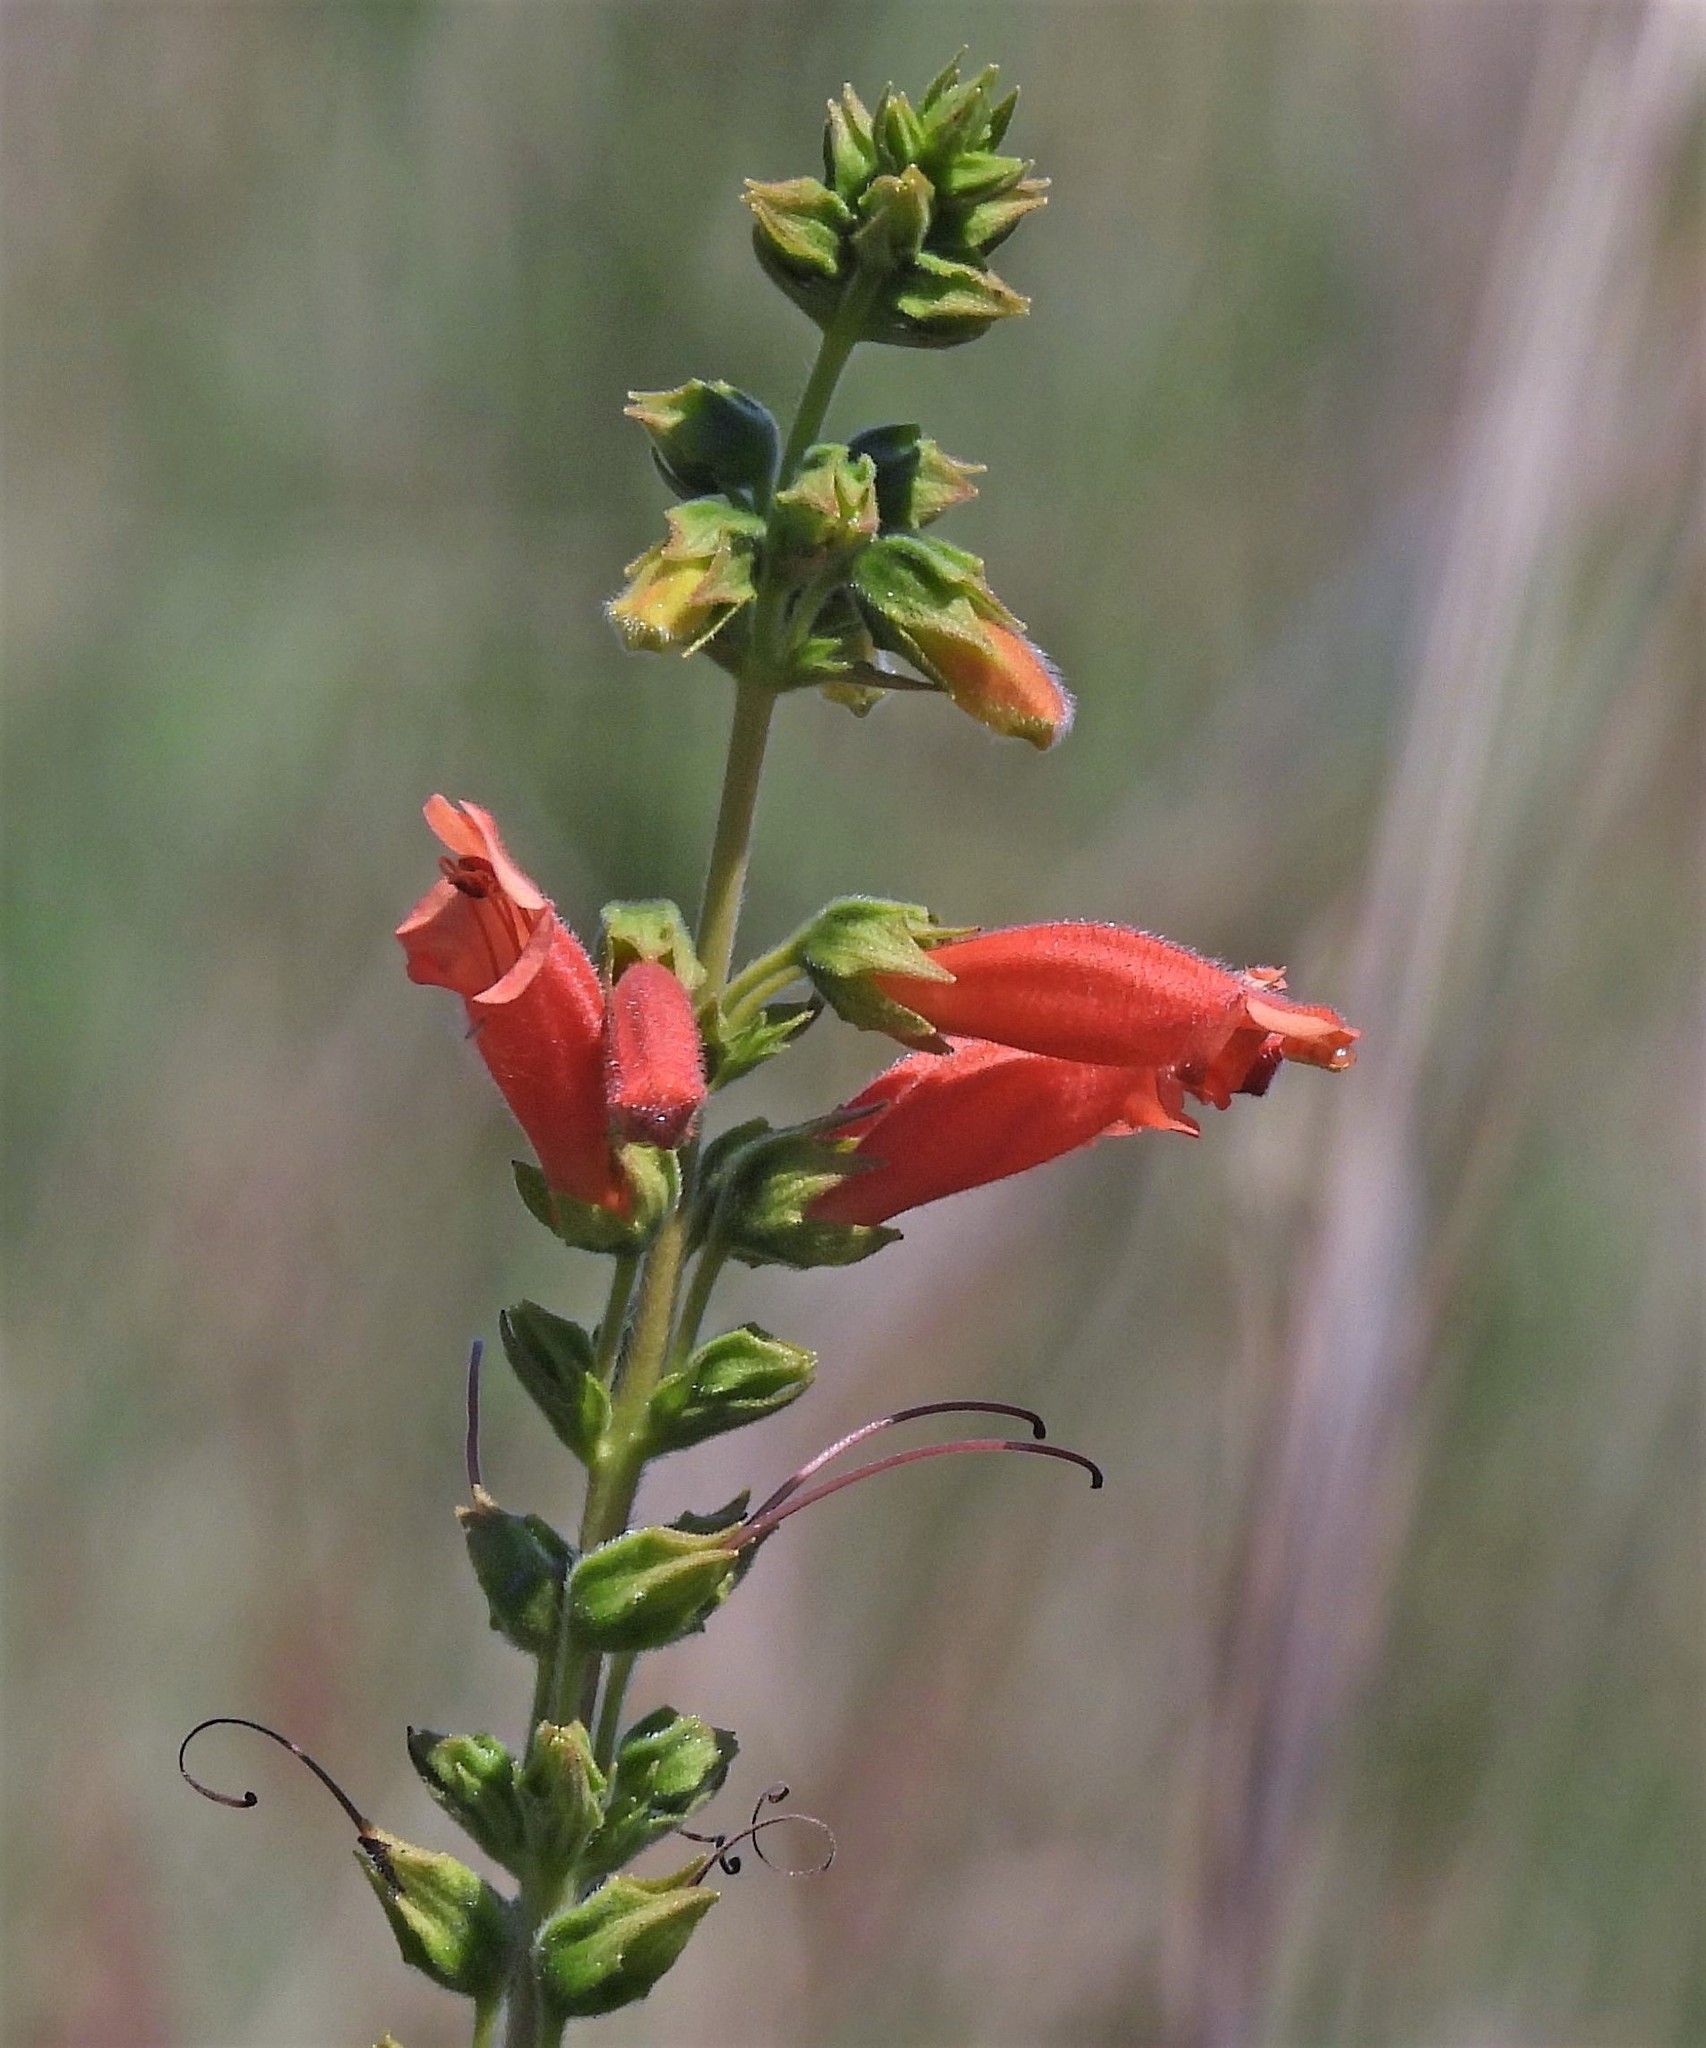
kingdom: Plantae
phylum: Tracheophyta
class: Magnoliopsida
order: Lamiales
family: Gesneriaceae
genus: Sinningia
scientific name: Sinningia elatior
